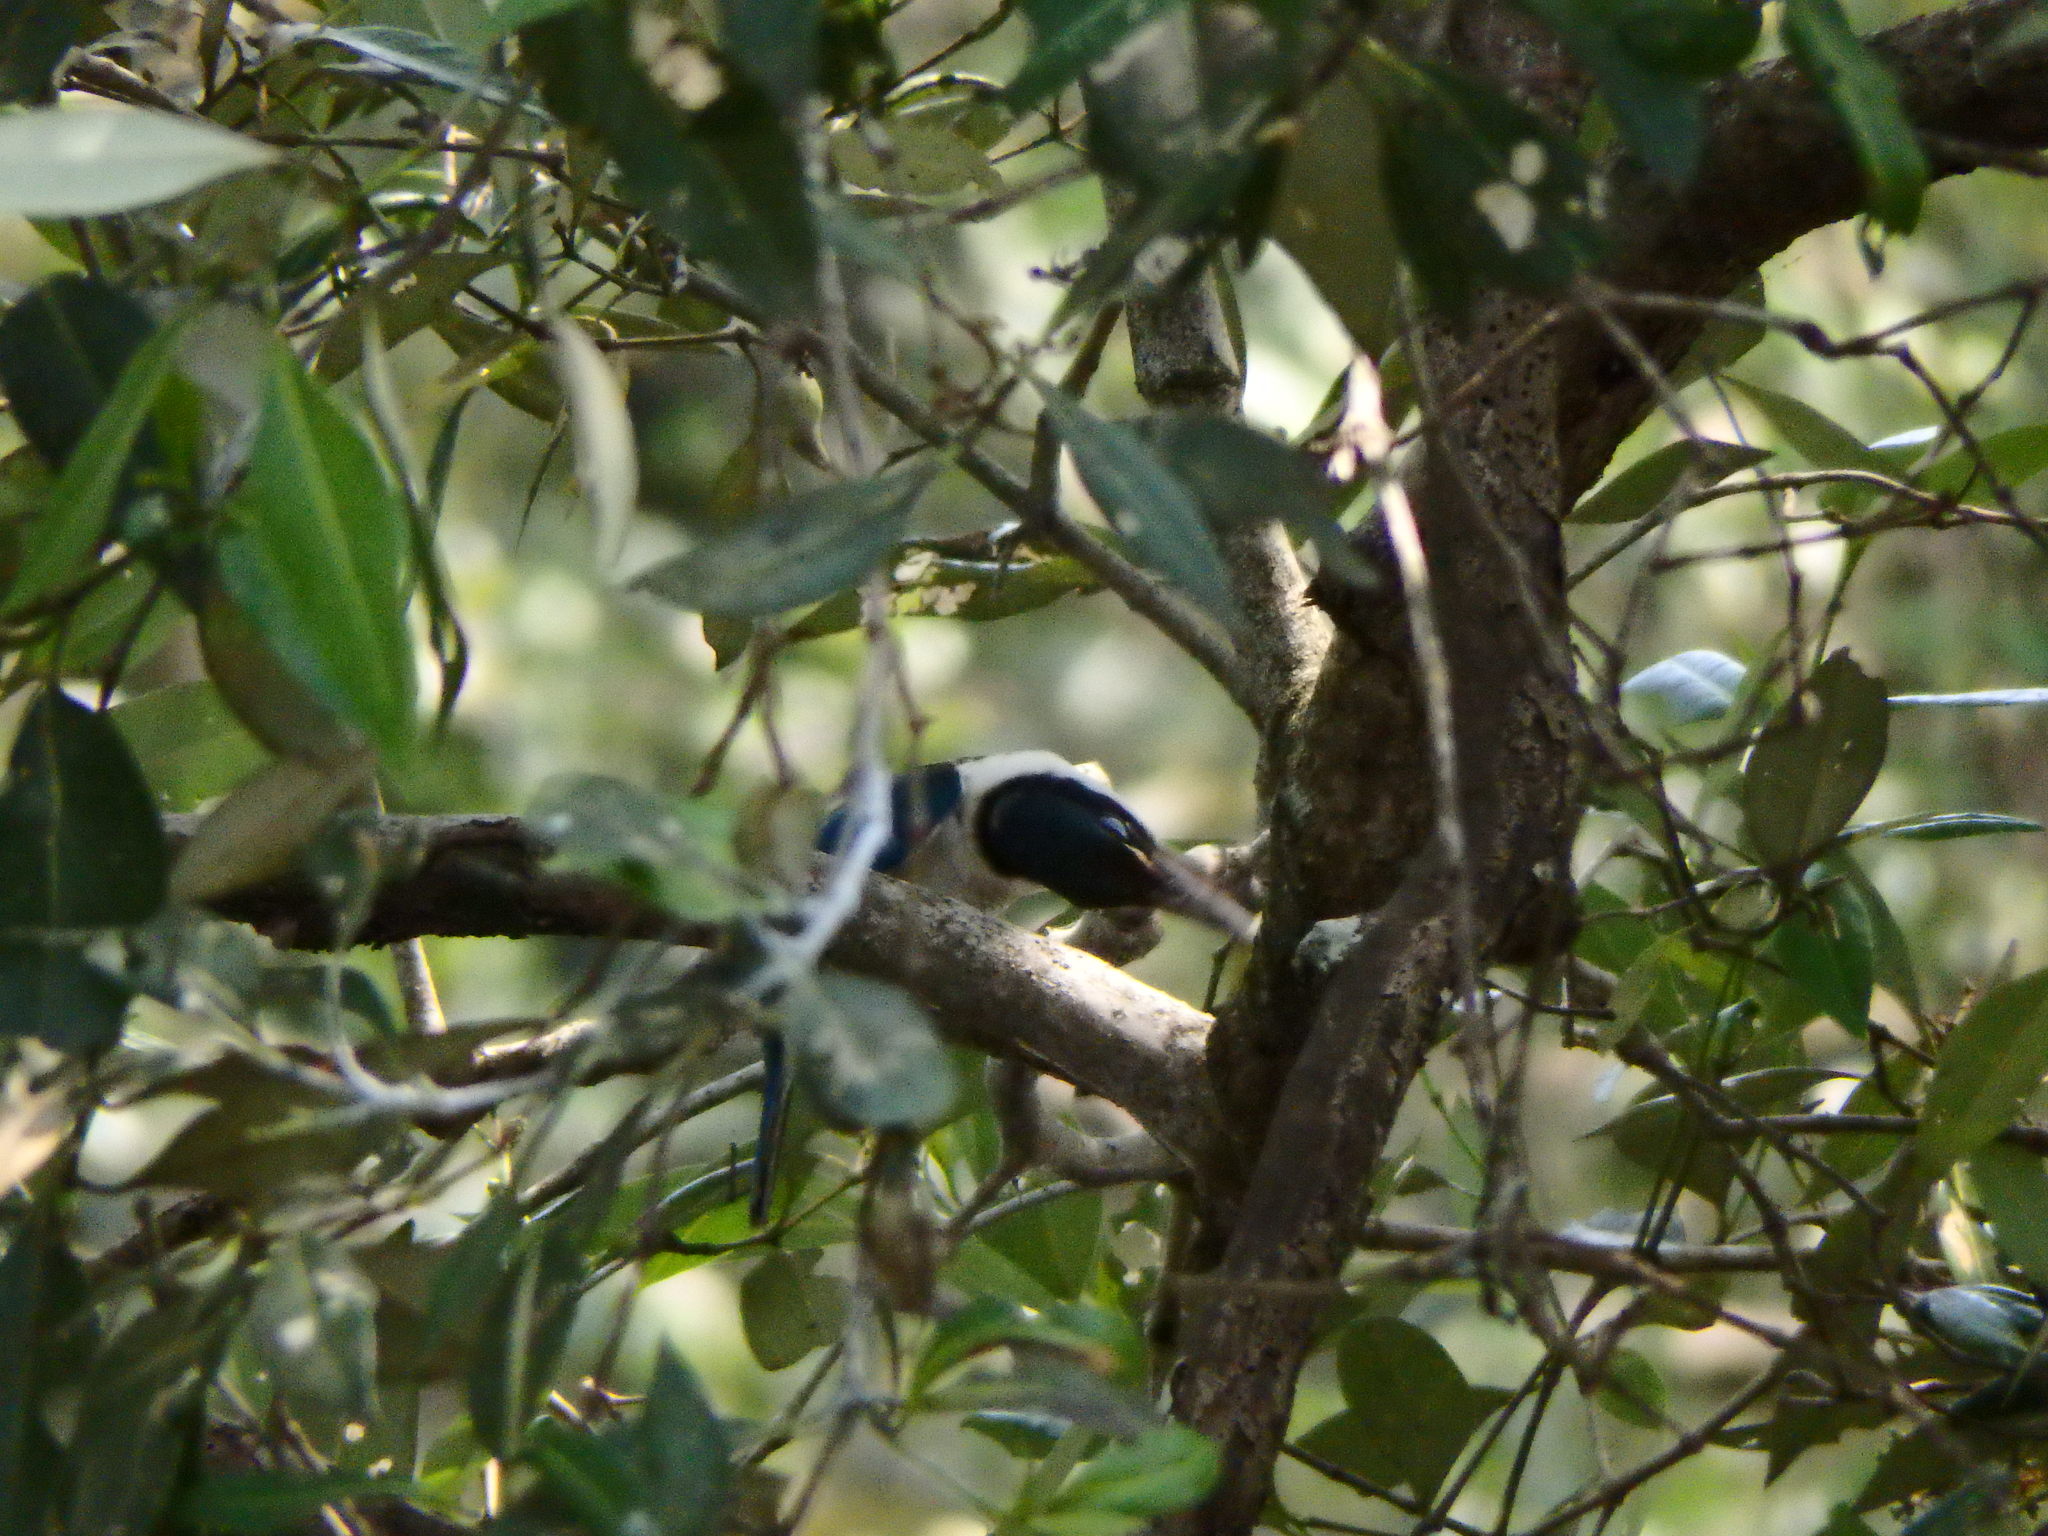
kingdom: Animalia
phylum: Chordata
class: Aves
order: Coraciiformes
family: Alcedinidae
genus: Todiramphus
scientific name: Todiramphus chloris
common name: Collared kingfisher
